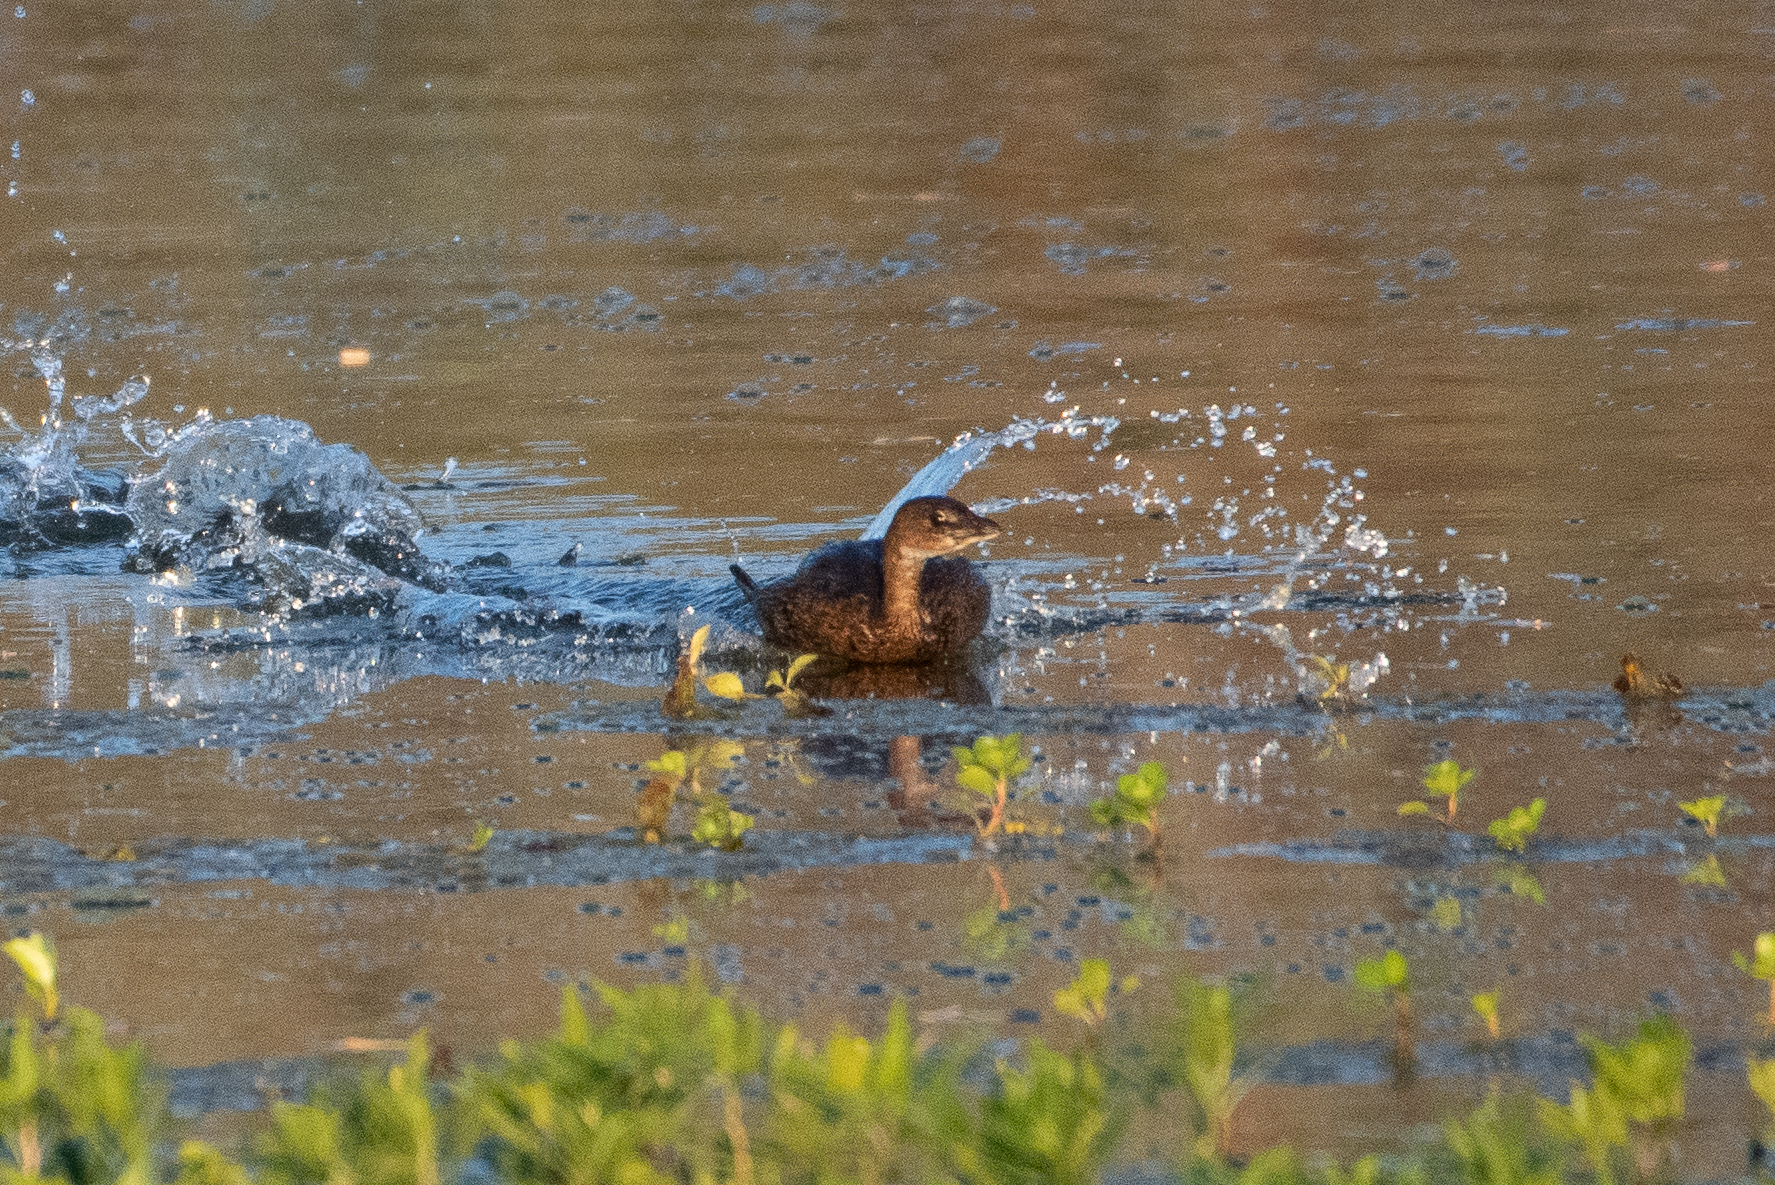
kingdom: Animalia
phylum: Chordata
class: Aves
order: Podicipediformes
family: Podicipedidae
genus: Podilymbus
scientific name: Podilymbus podiceps
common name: Pied-billed grebe
